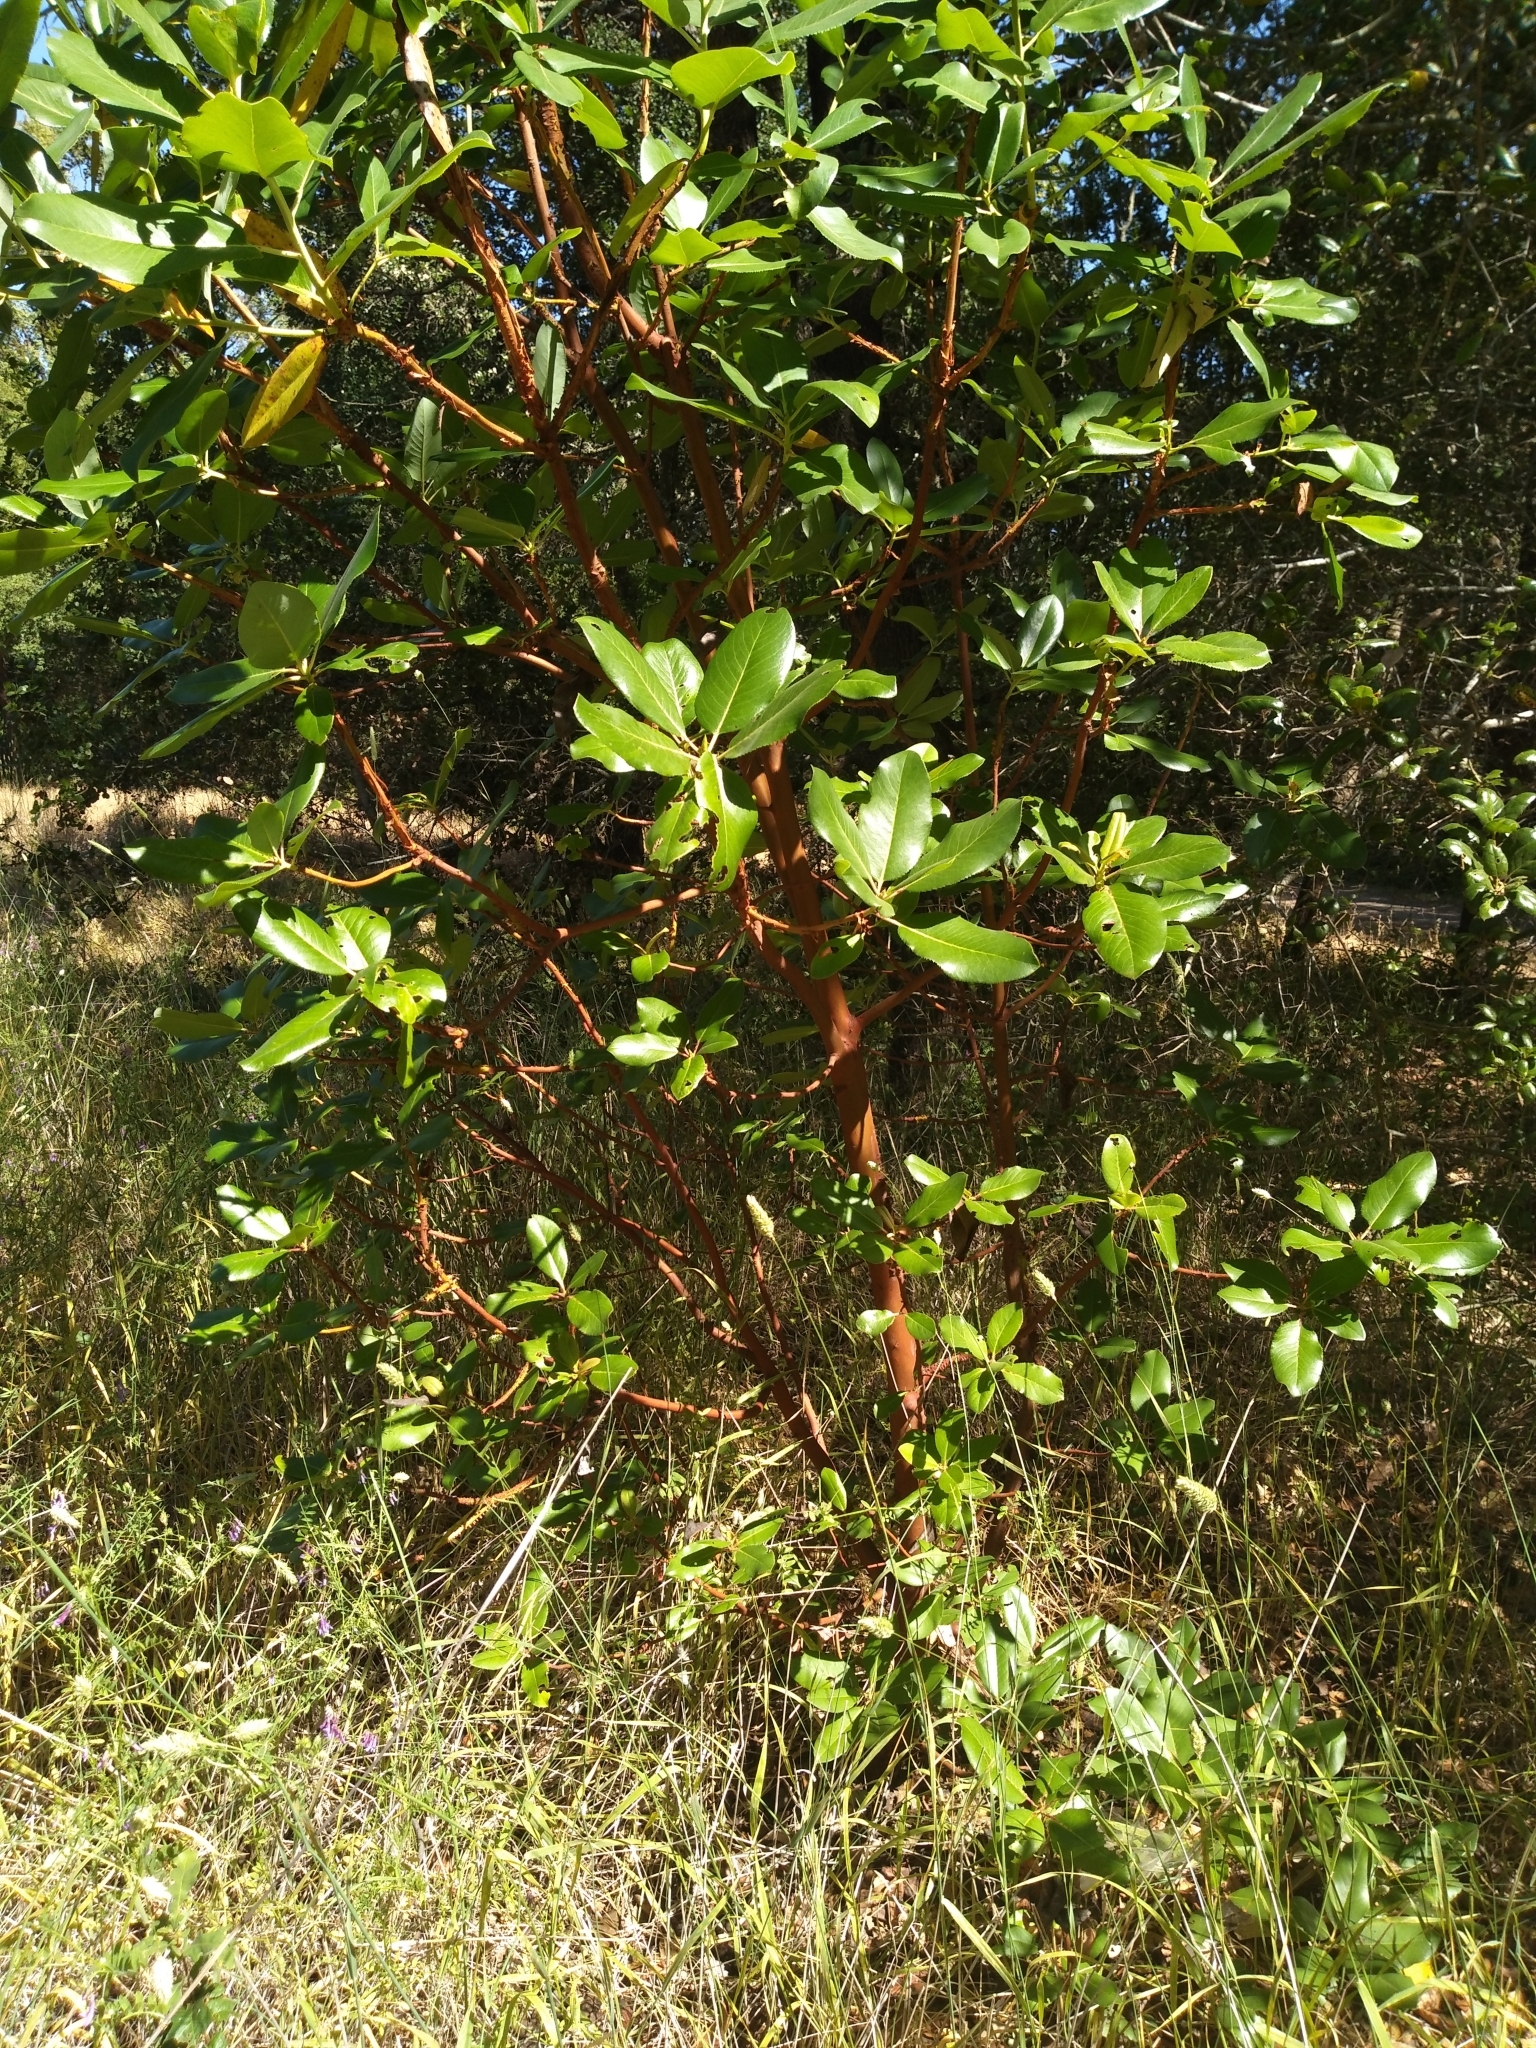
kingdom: Plantae
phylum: Tracheophyta
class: Magnoliopsida
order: Ericales
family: Ericaceae
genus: Arbutus
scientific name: Arbutus menziesii
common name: Pacific madrone
